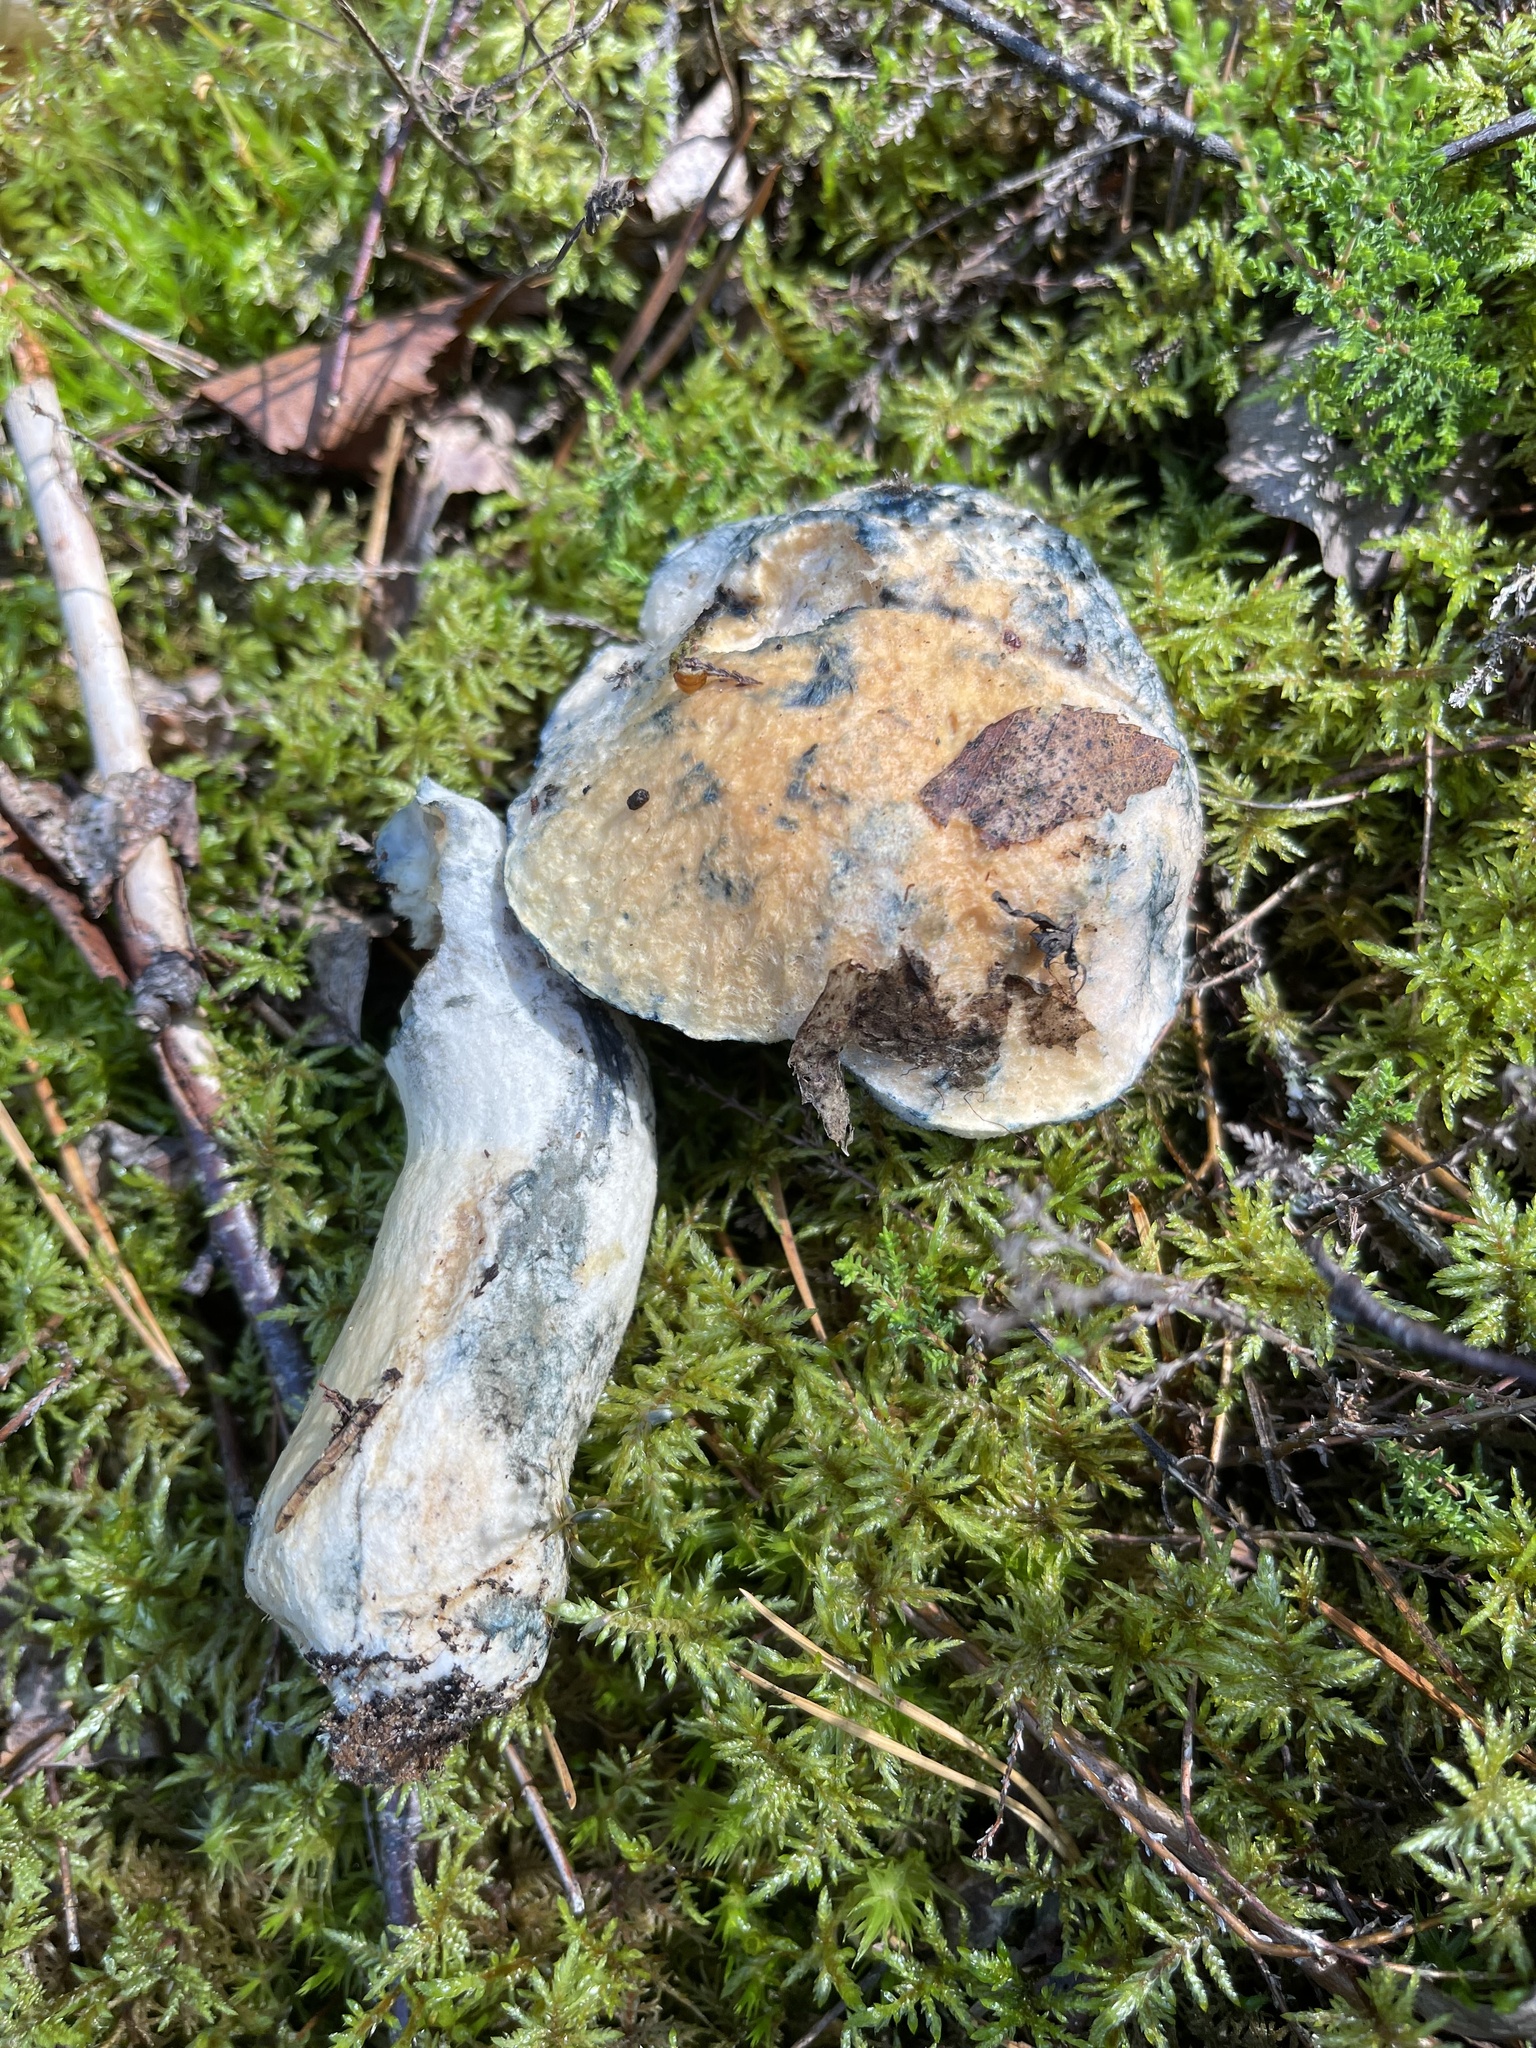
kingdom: Fungi
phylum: Basidiomycota
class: Agaricomycetes
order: Boletales
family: Gyroporaceae
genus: Gyroporus
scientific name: Gyroporus cyanescens
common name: Cornflower bolete
